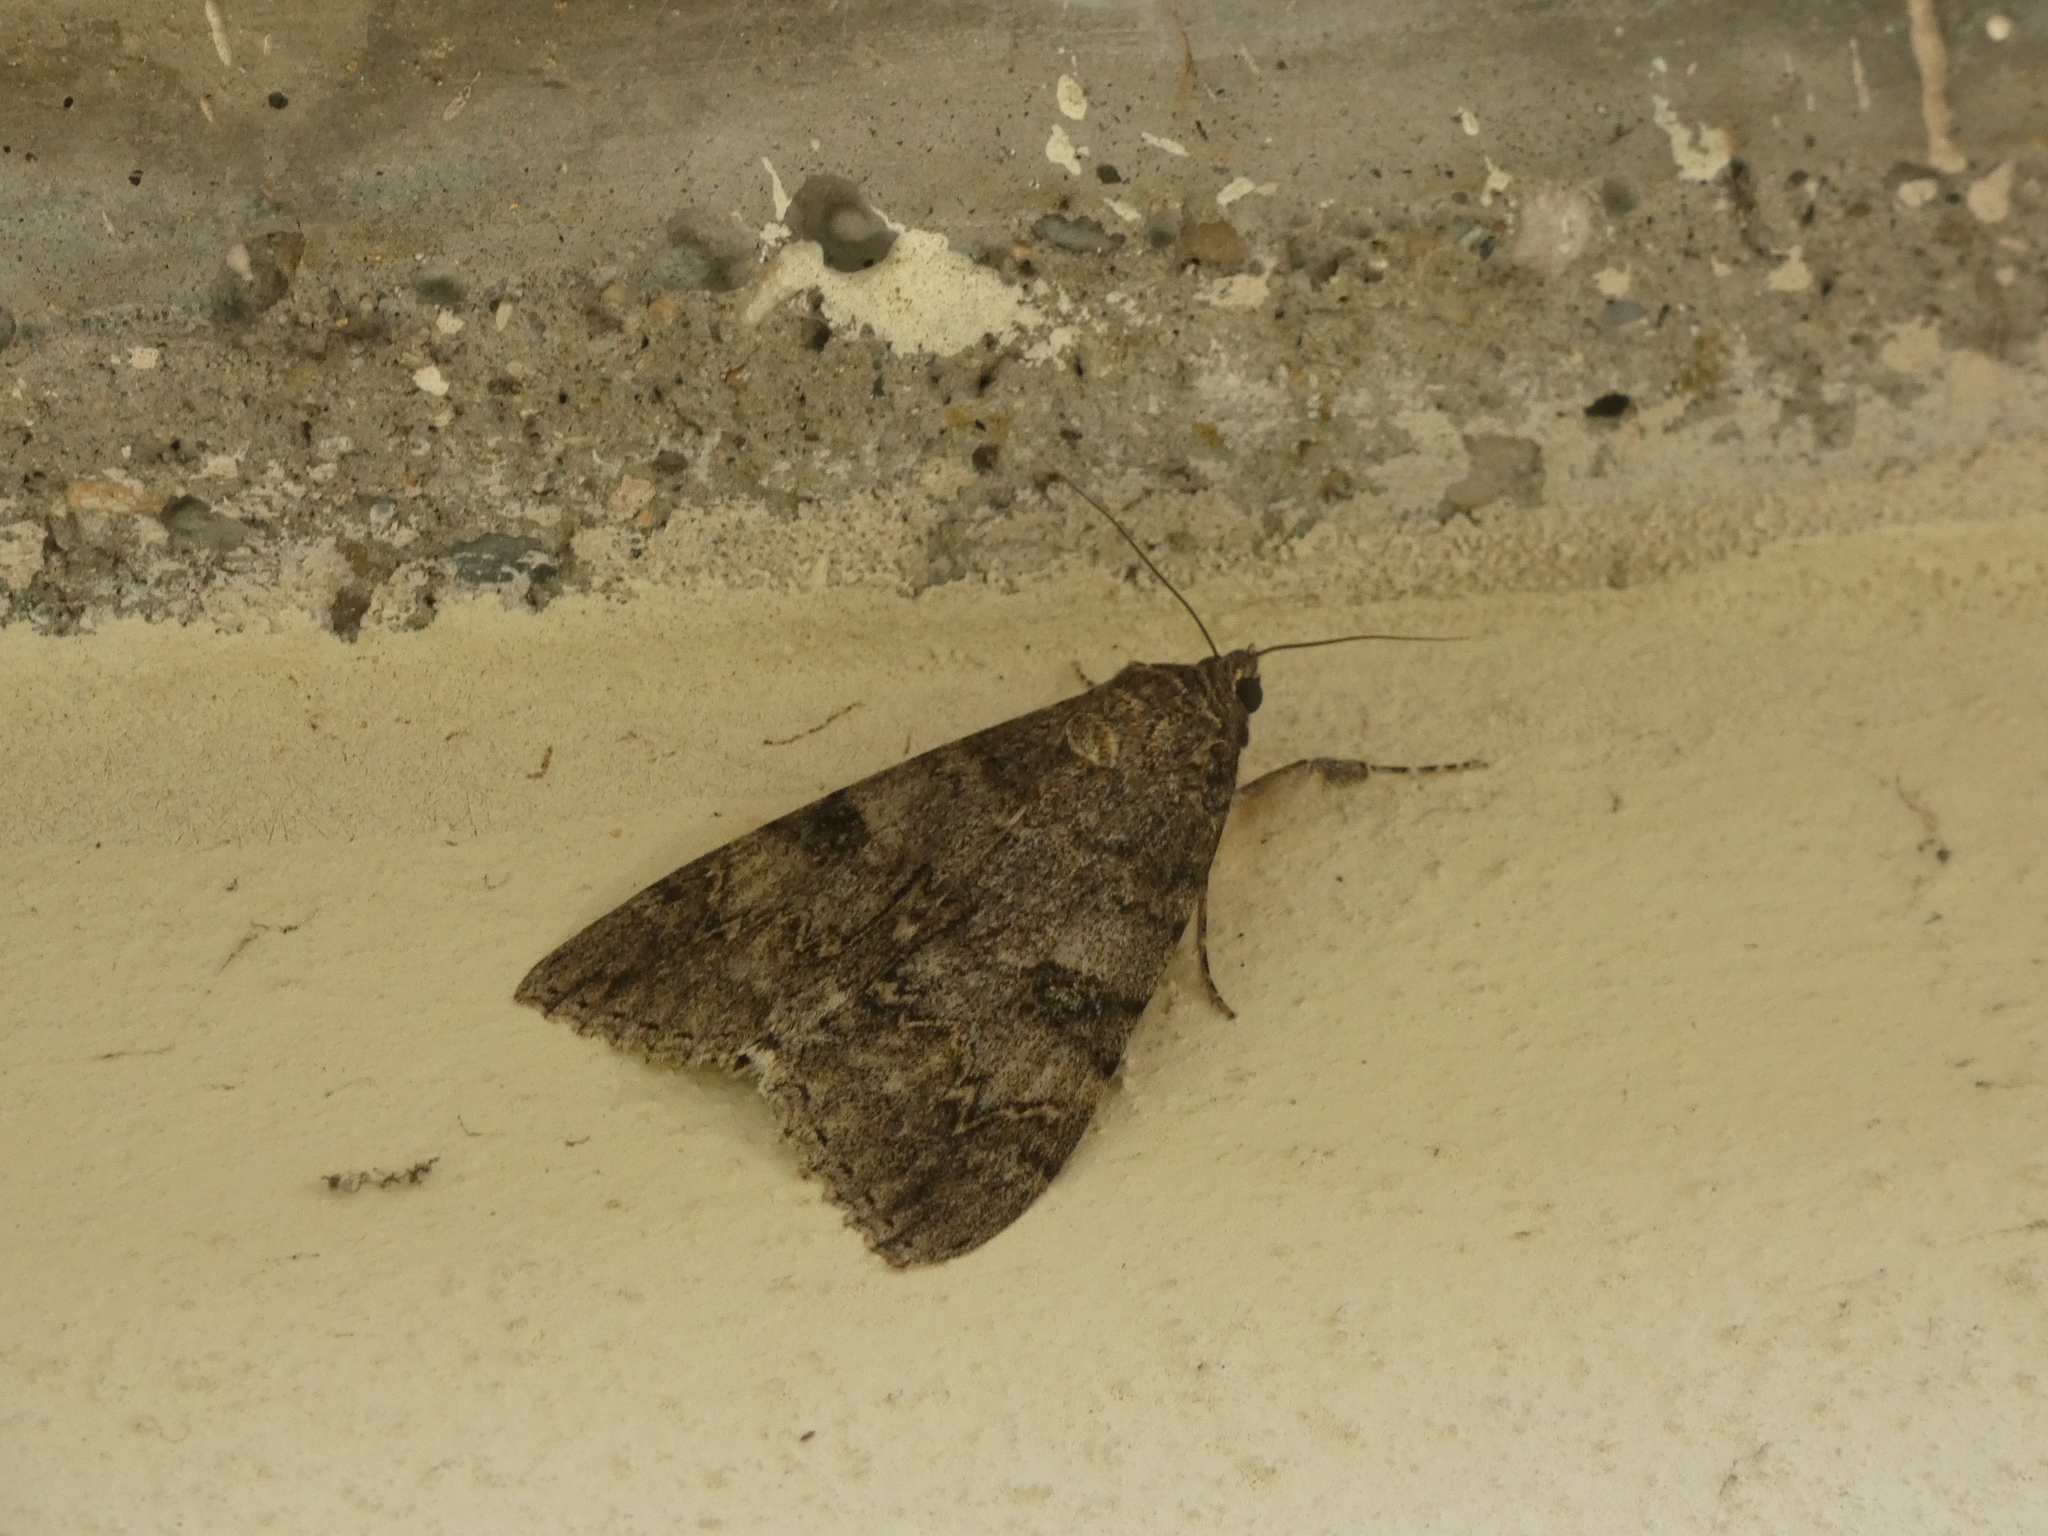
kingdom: Animalia
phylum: Arthropoda
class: Insecta
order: Lepidoptera
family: Erebidae
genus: Catocala
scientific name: Catocala nupta
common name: Red underwing
